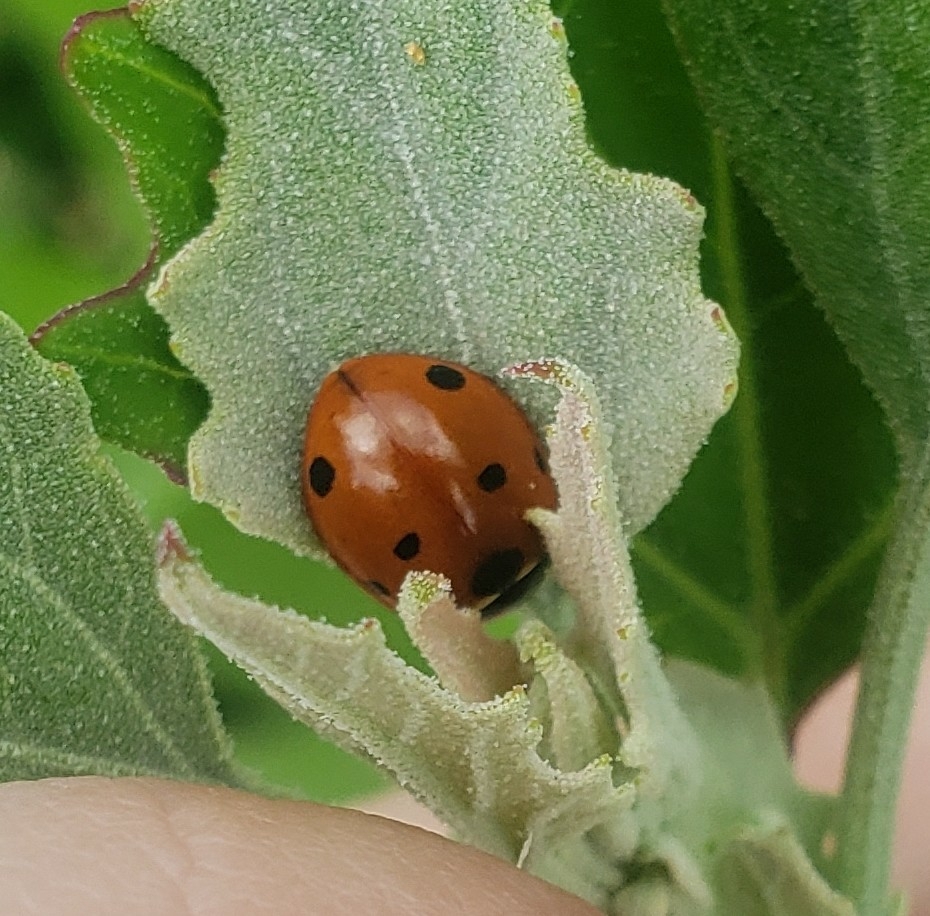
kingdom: Animalia
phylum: Arthropoda
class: Insecta
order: Coleoptera
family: Coccinellidae
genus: Coccinella
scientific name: Coccinella septempunctata
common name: Sevenspotted lady beetle
